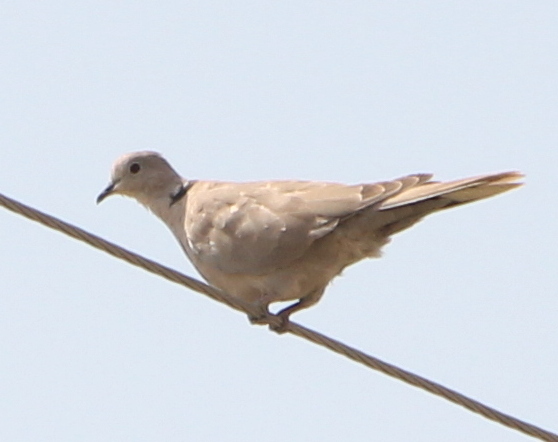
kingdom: Animalia
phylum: Chordata
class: Aves
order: Columbiformes
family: Columbidae
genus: Streptopelia
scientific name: Streptopelia decaocto
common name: Eurasian collared dove
